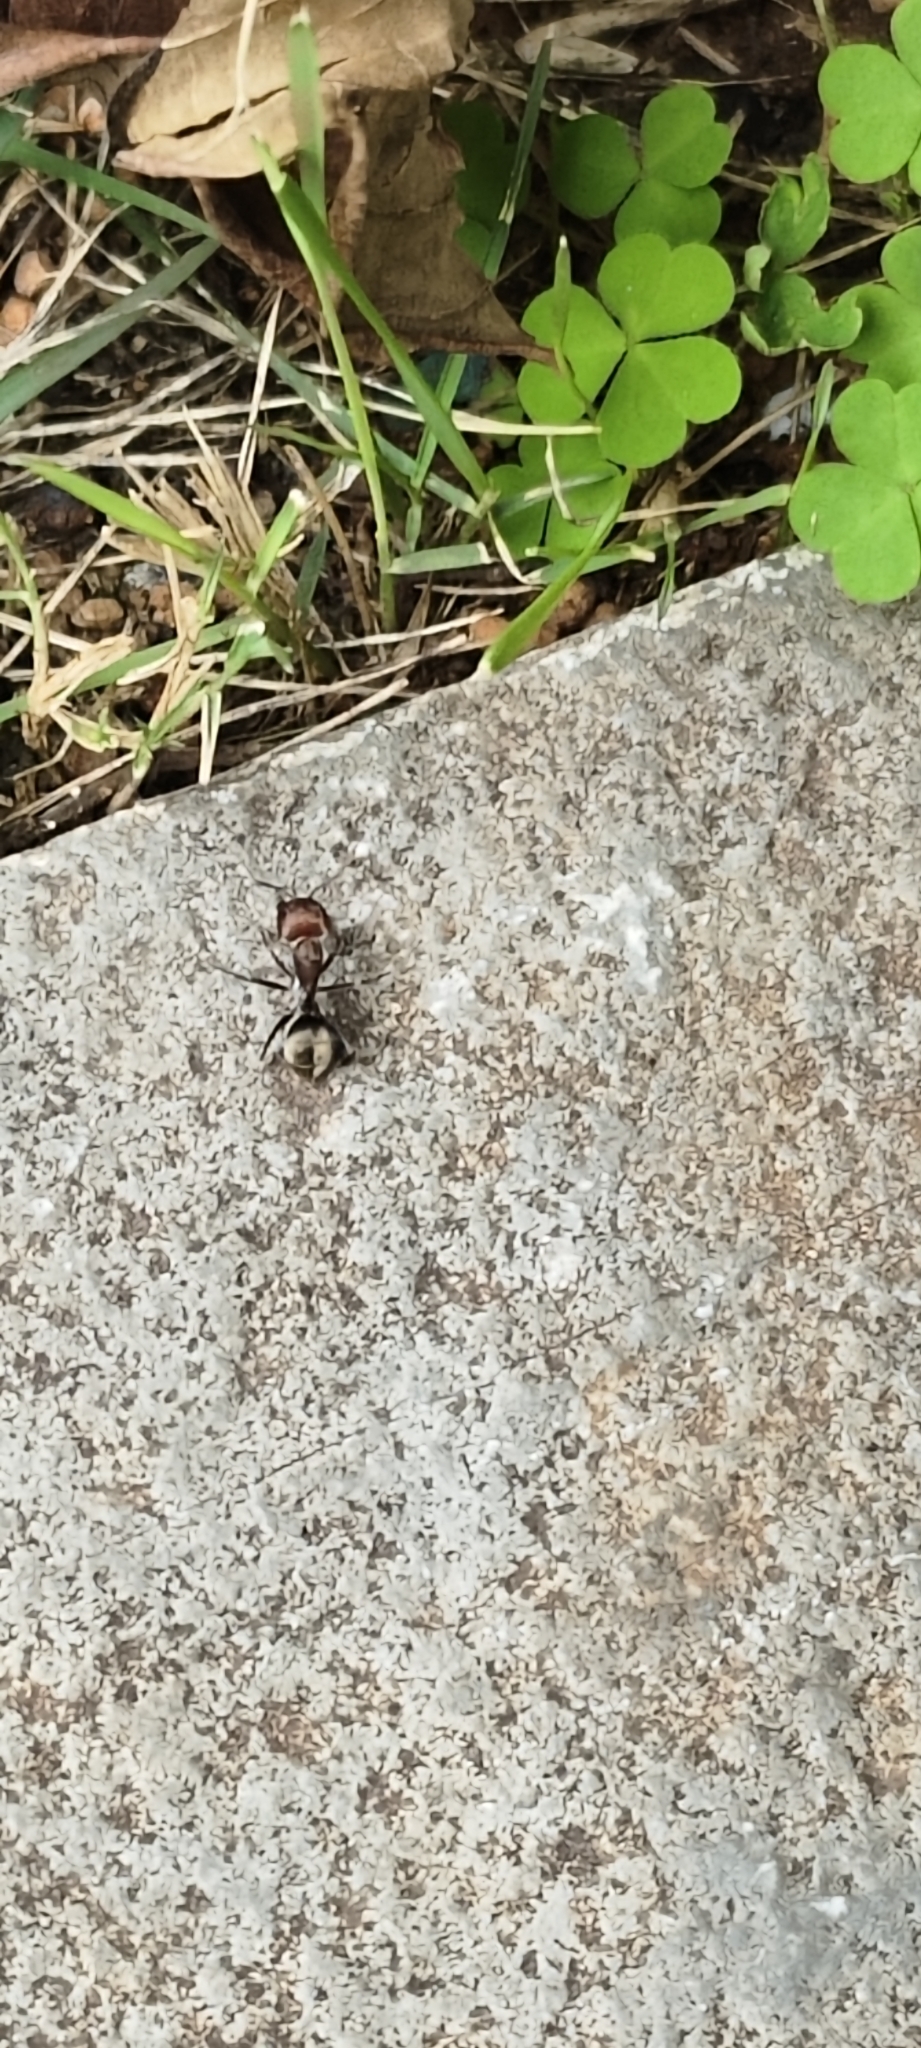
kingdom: Animalia
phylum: Arthropoda
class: Insecta
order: Hymenoptera
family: Formicidae
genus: Camponotus
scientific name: Camponotus rufoglaucus
